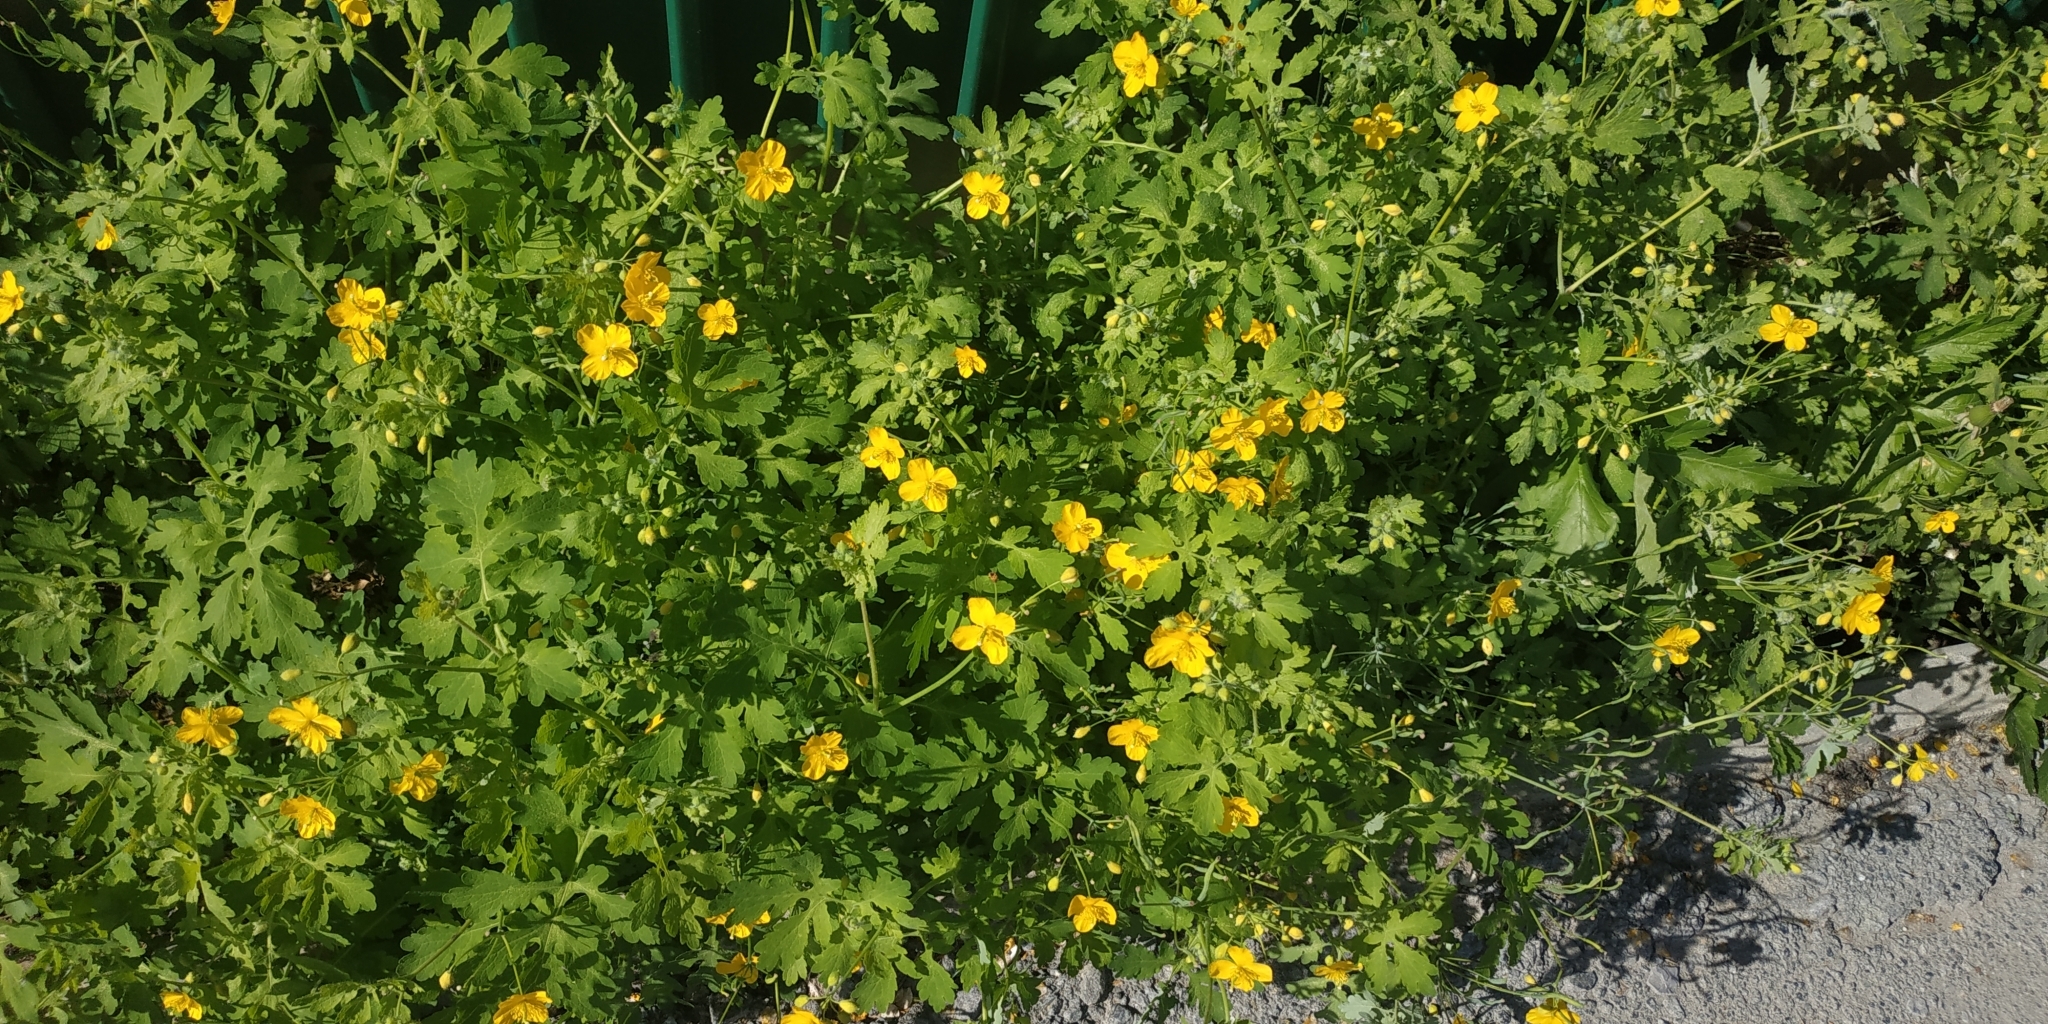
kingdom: Plantae
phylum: Tracheophyta
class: Magnoliopsida
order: Ranunculales
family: Papaveraceae
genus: Chelidonium
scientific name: Chelidonium majus
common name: Greater celandine
